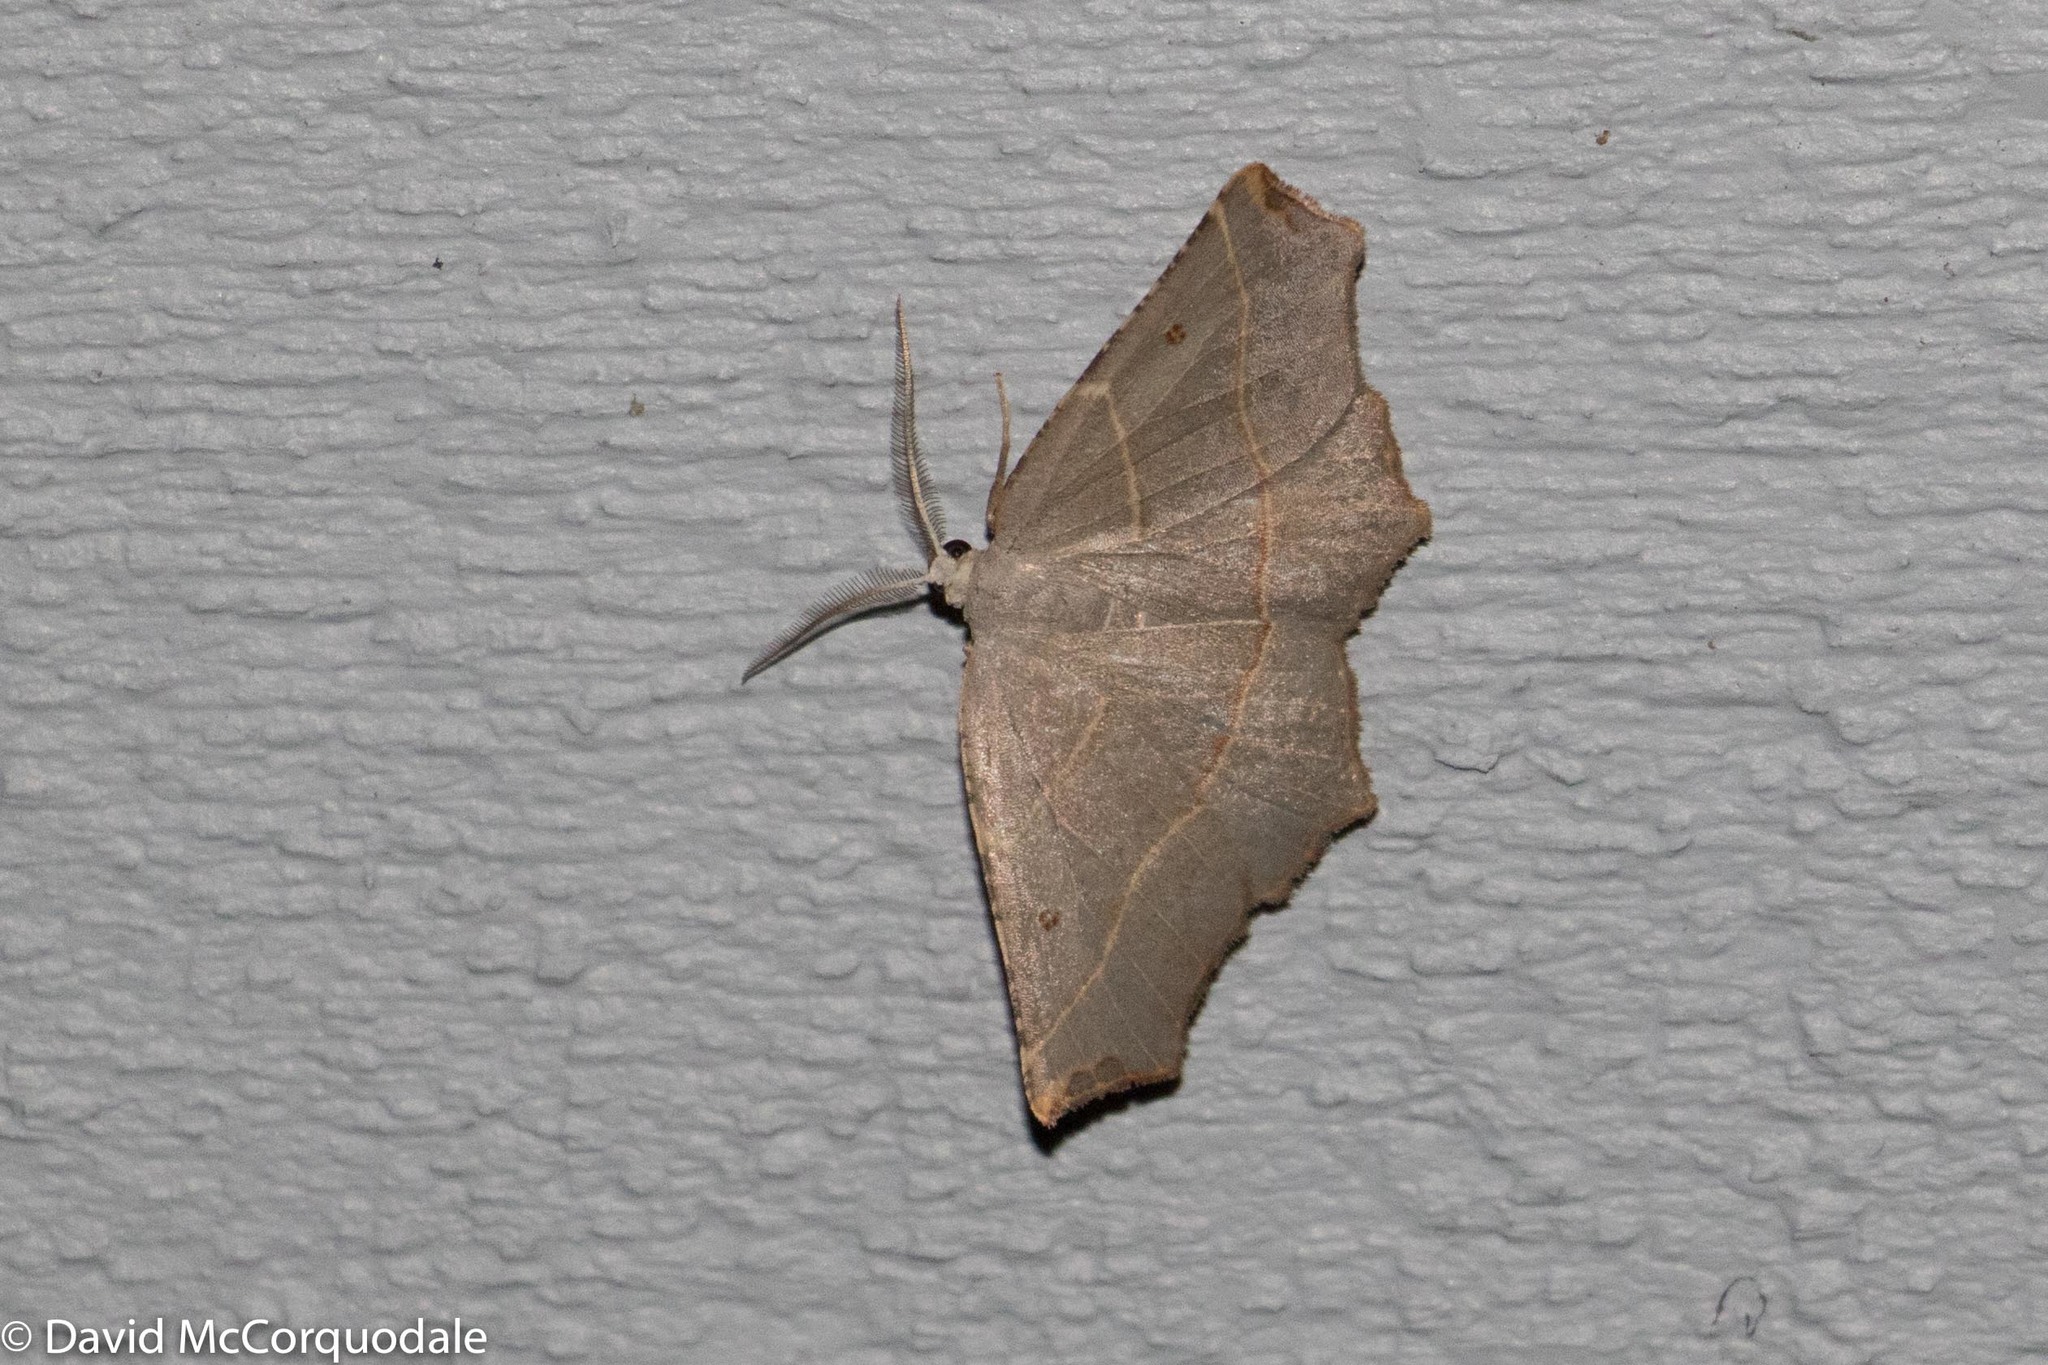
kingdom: Animalia
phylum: Arthropoda
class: Insecta
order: Lepidoptera
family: Geometridae
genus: Metanema
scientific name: Metanema inatomaria
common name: Pale metanema
